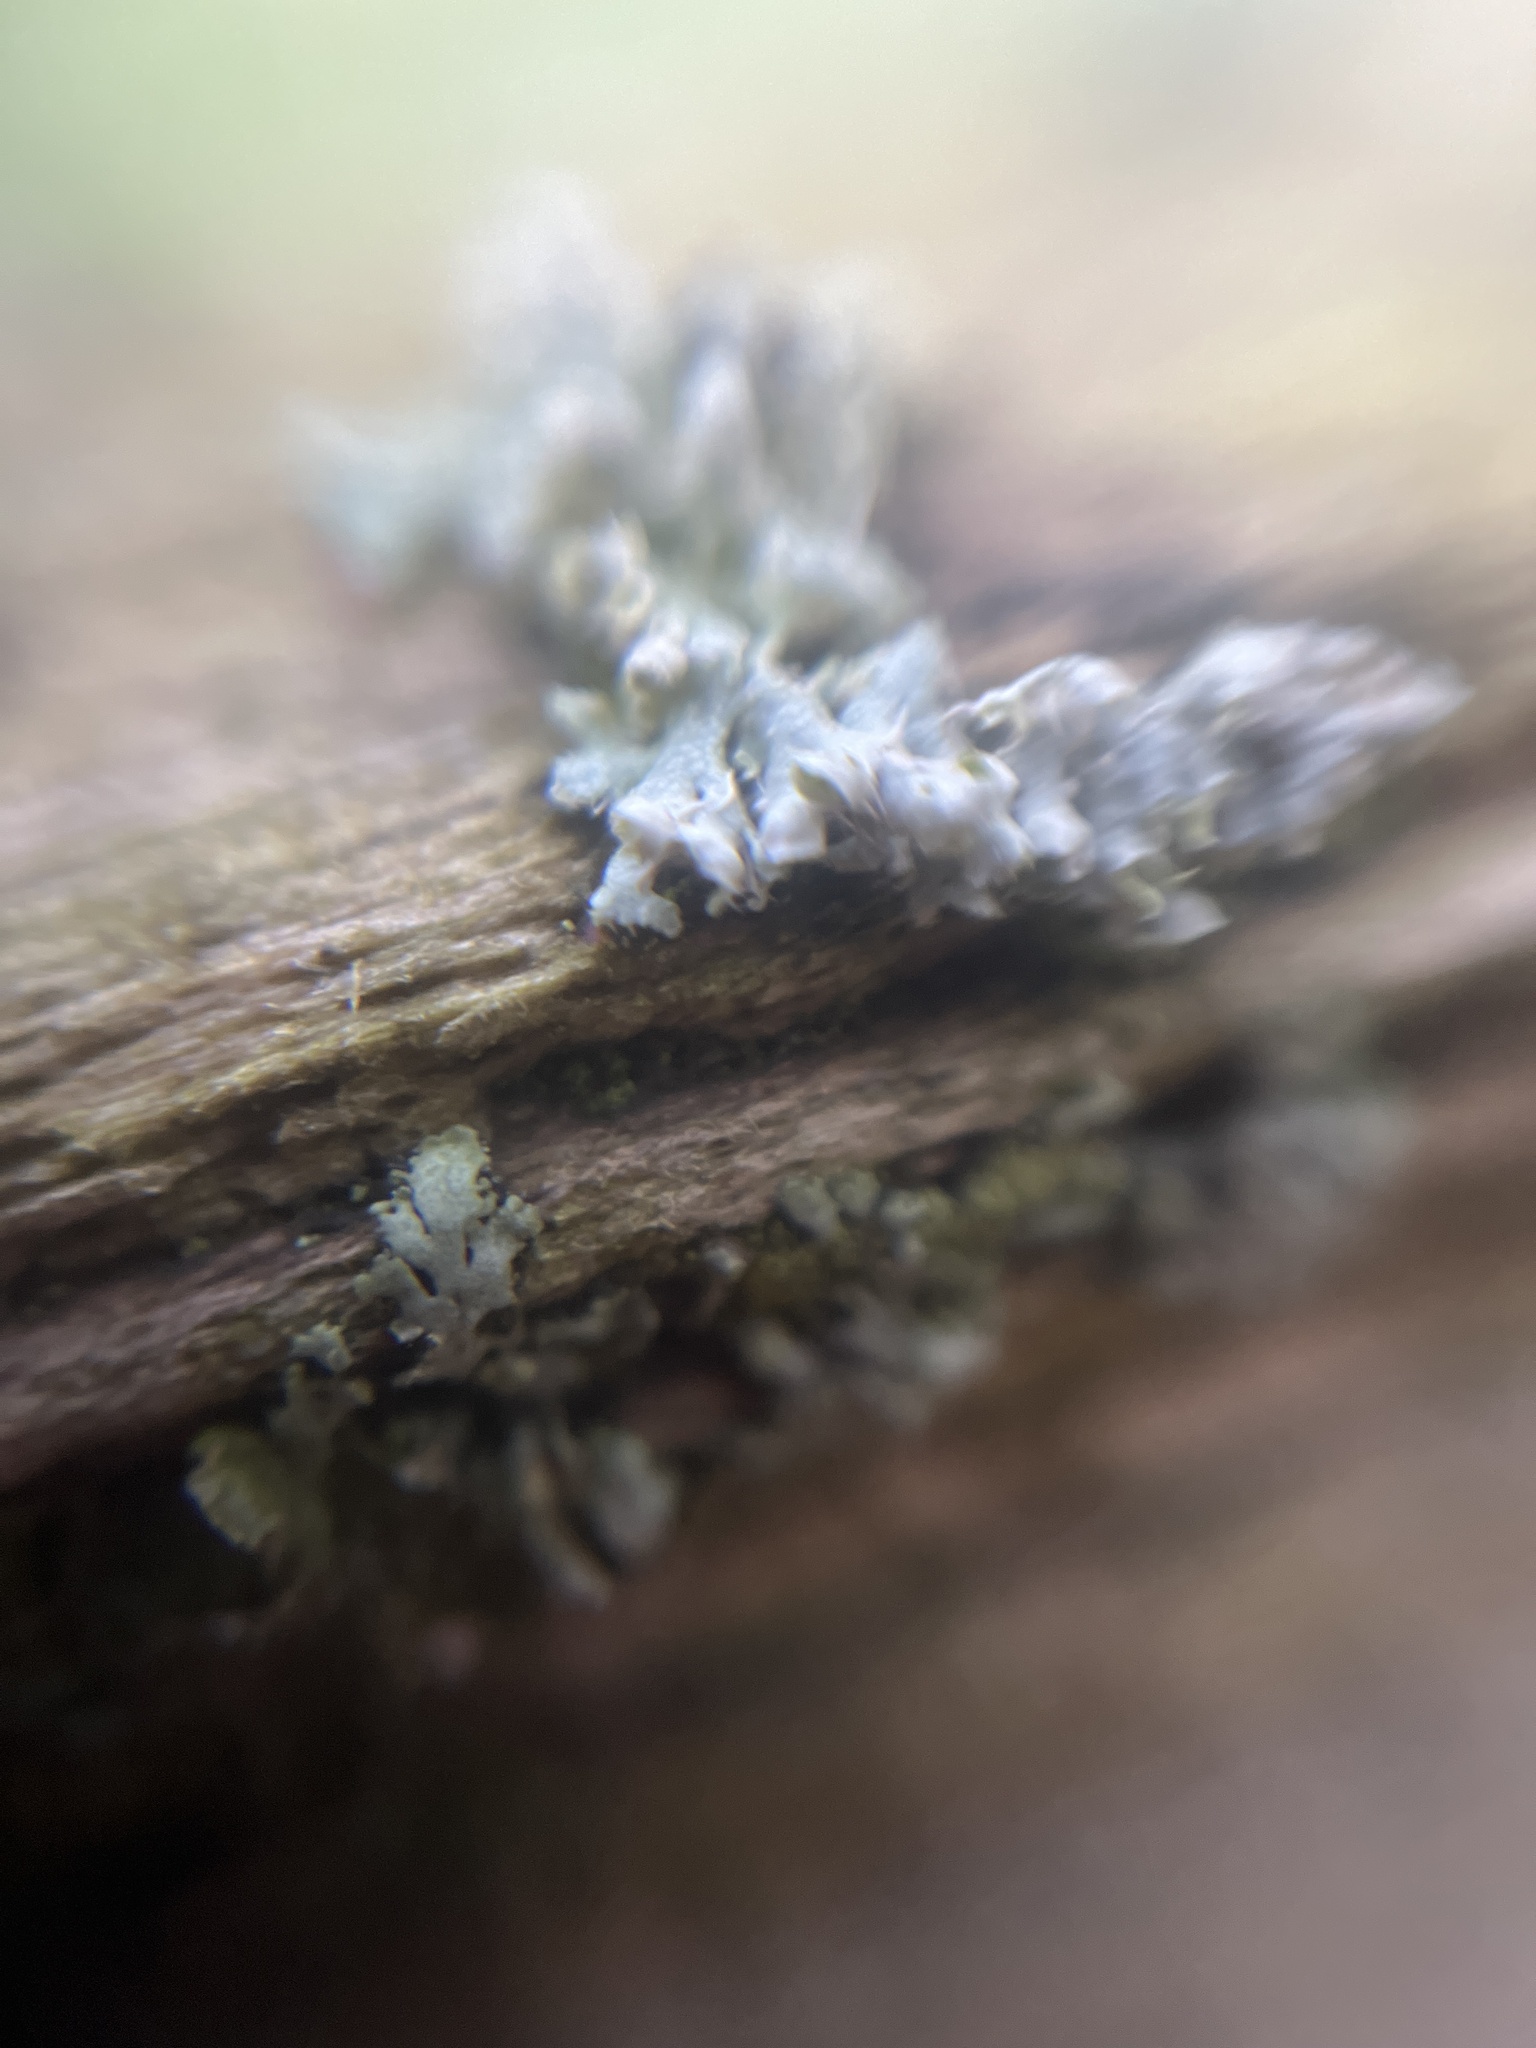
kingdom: Fungi
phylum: Ascomycota
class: Lecanoromycetes
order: Caliciales
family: Physciaceae
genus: Physcia
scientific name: Physcia adscendens
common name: Hooded rosette lichen
